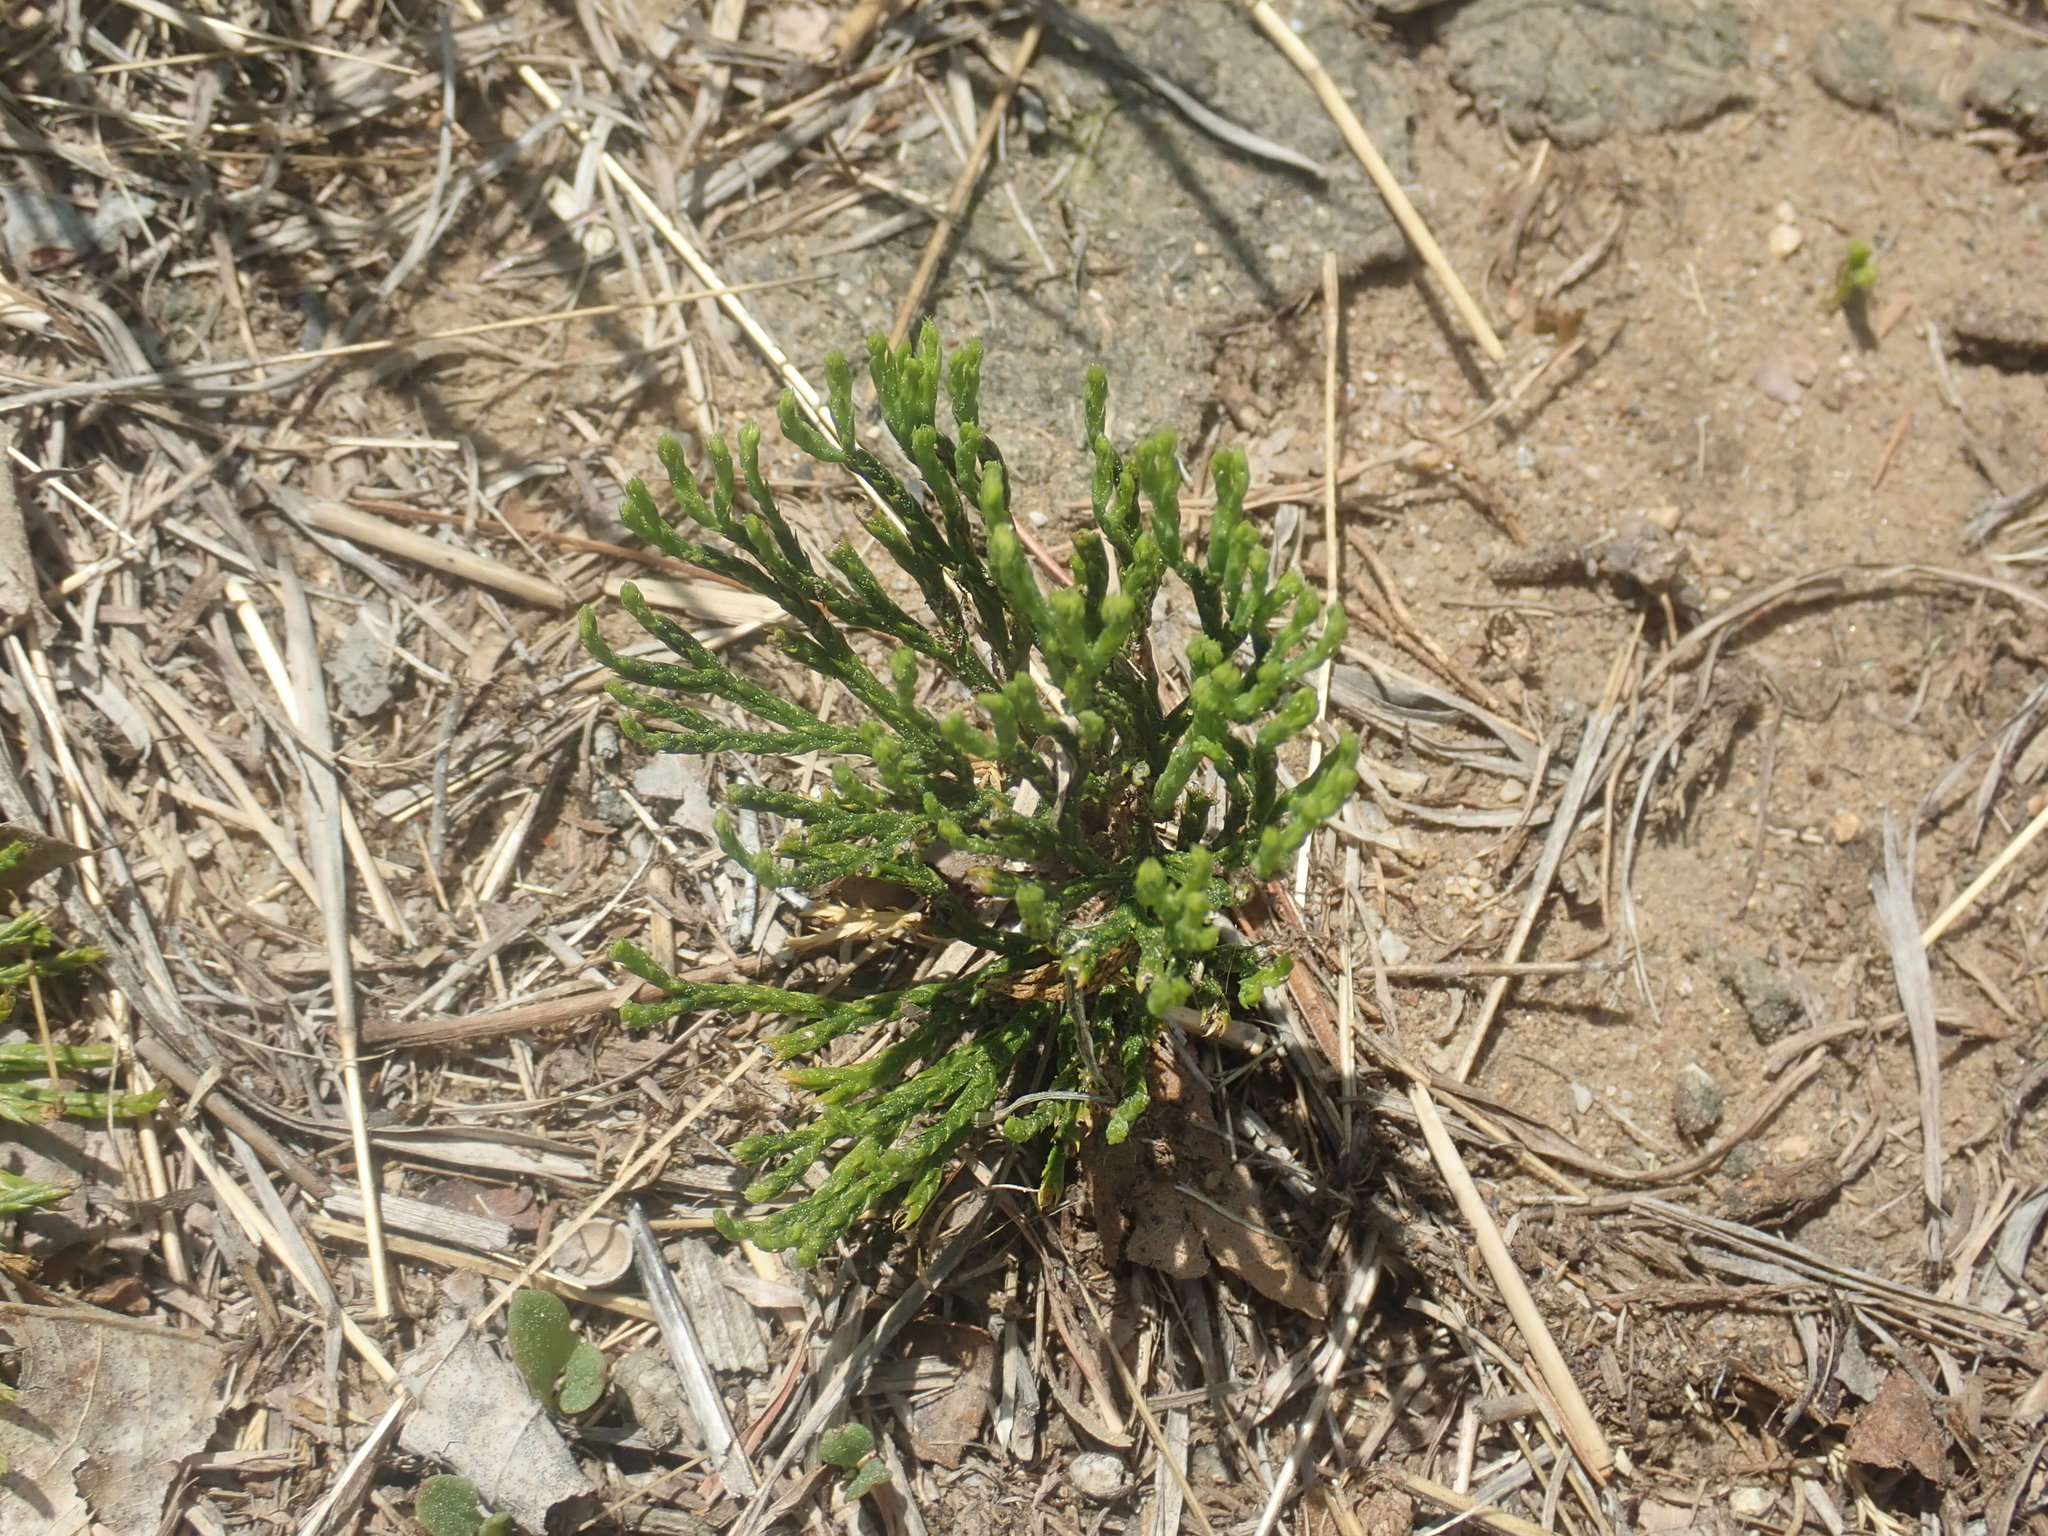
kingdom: Plantae
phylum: Tracheophyta
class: Lycopodiopsida
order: Lycopodiales
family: Lycopodiaceae
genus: Diphasiastrum
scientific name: Diphasiastrum tristachyum
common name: Blue ground-cedar
